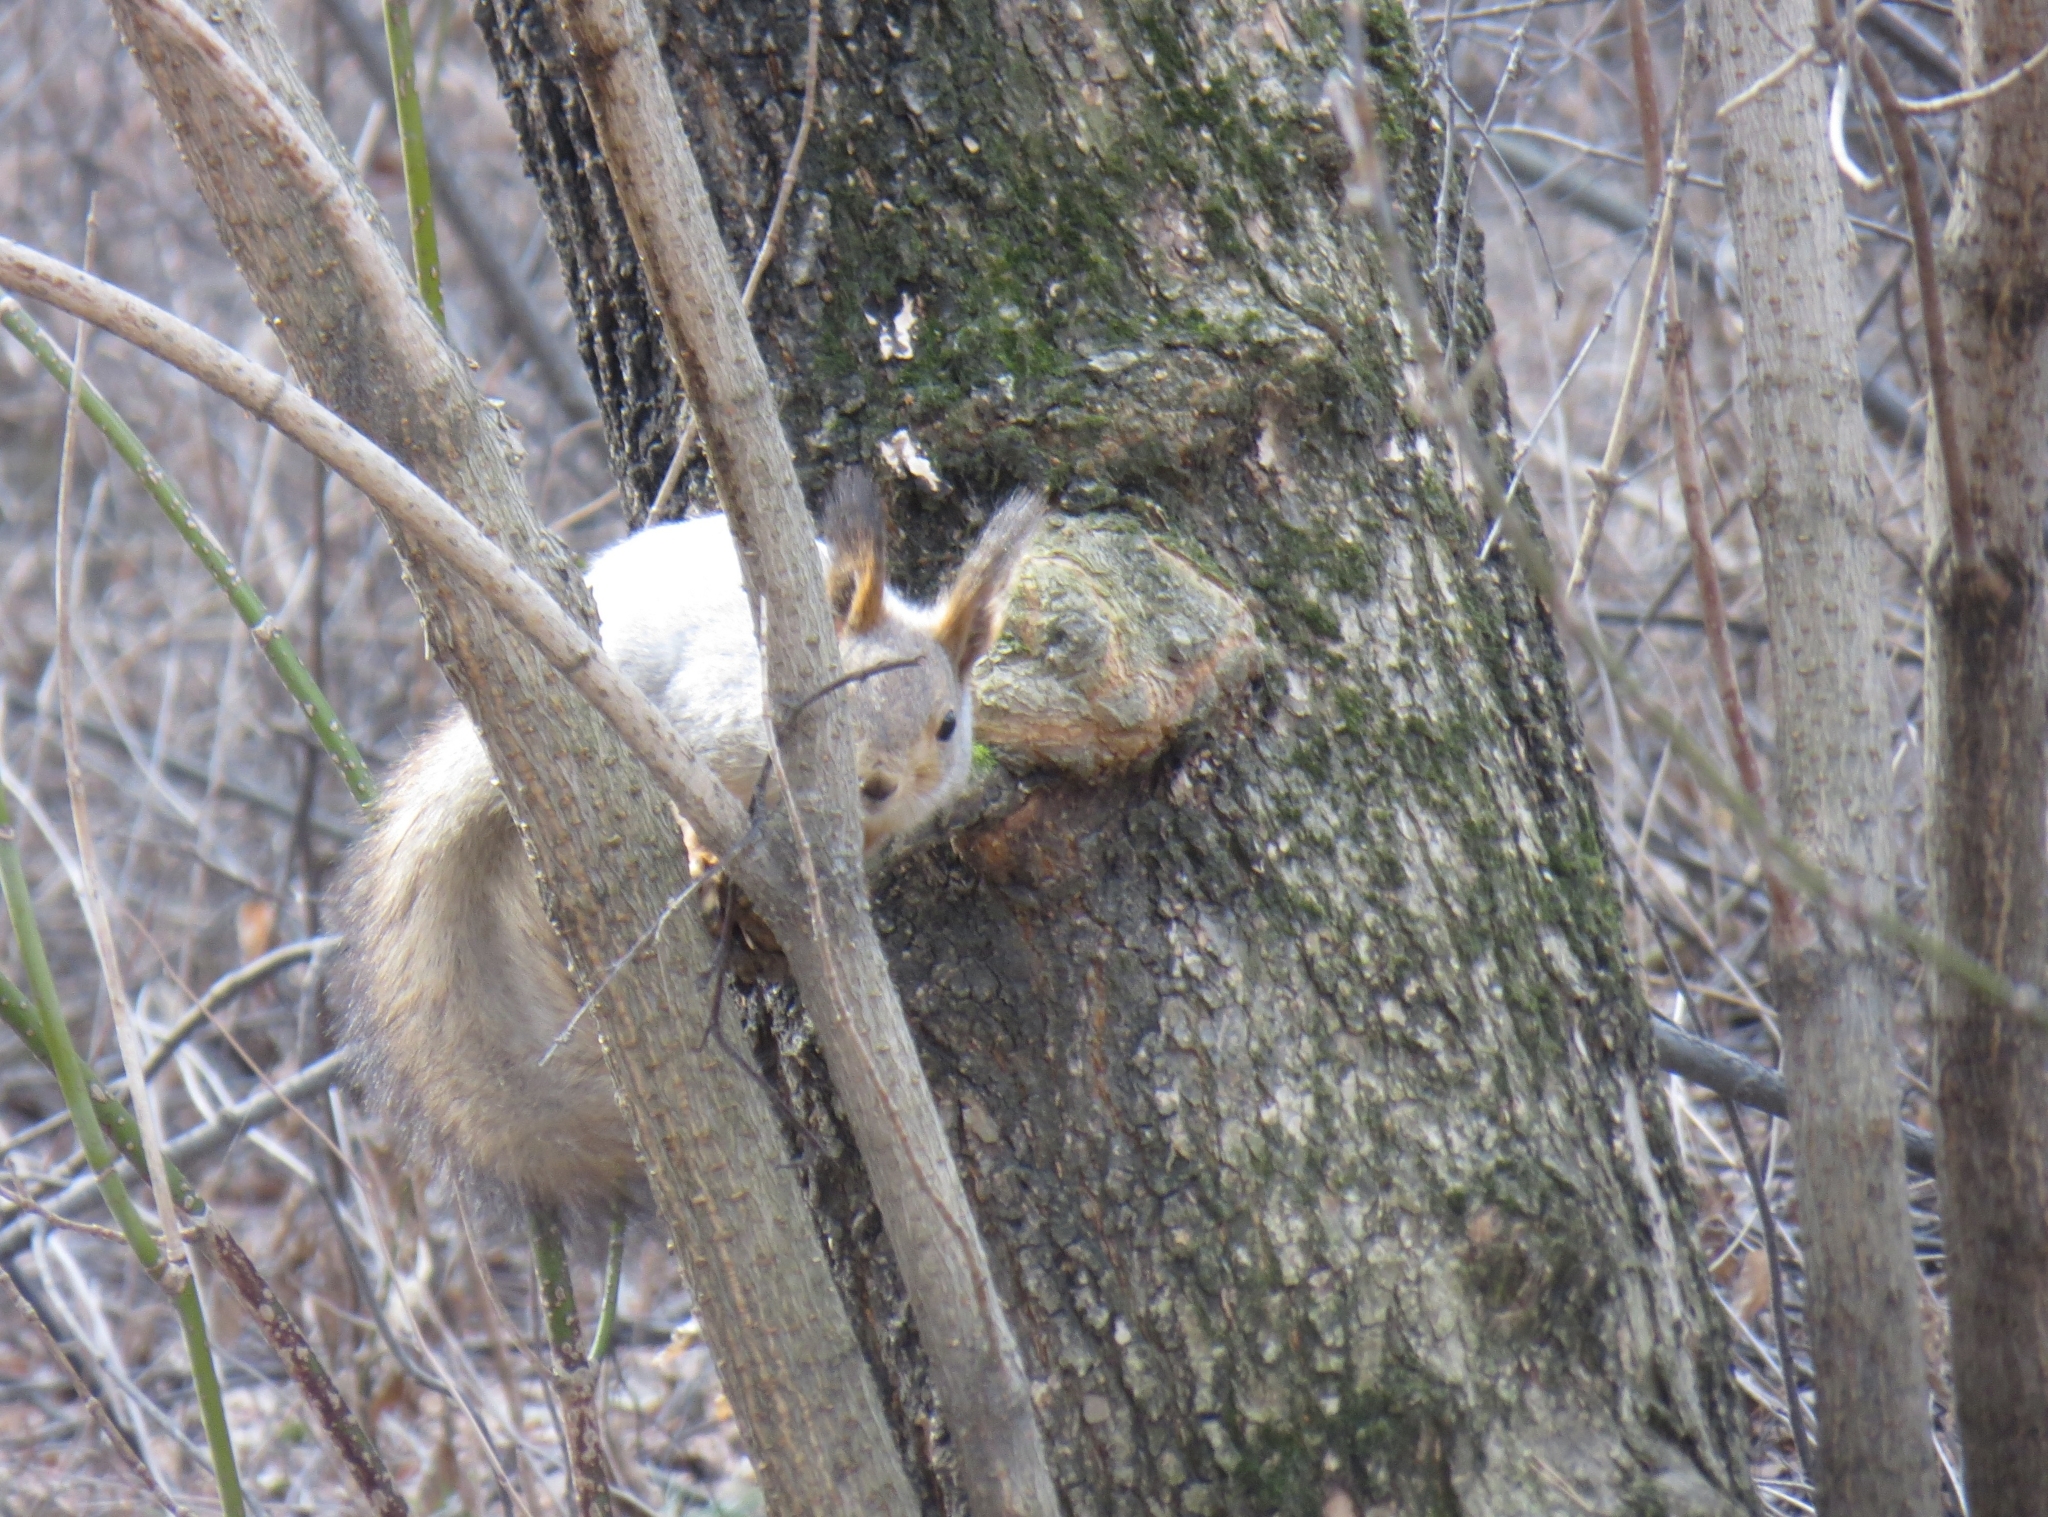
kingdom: Animalia
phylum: Chordata
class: Mammalia
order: Rodentia
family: Sciuridae
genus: Sciurus
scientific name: Sciurus vulgaris
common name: Eurasian red squirrel
